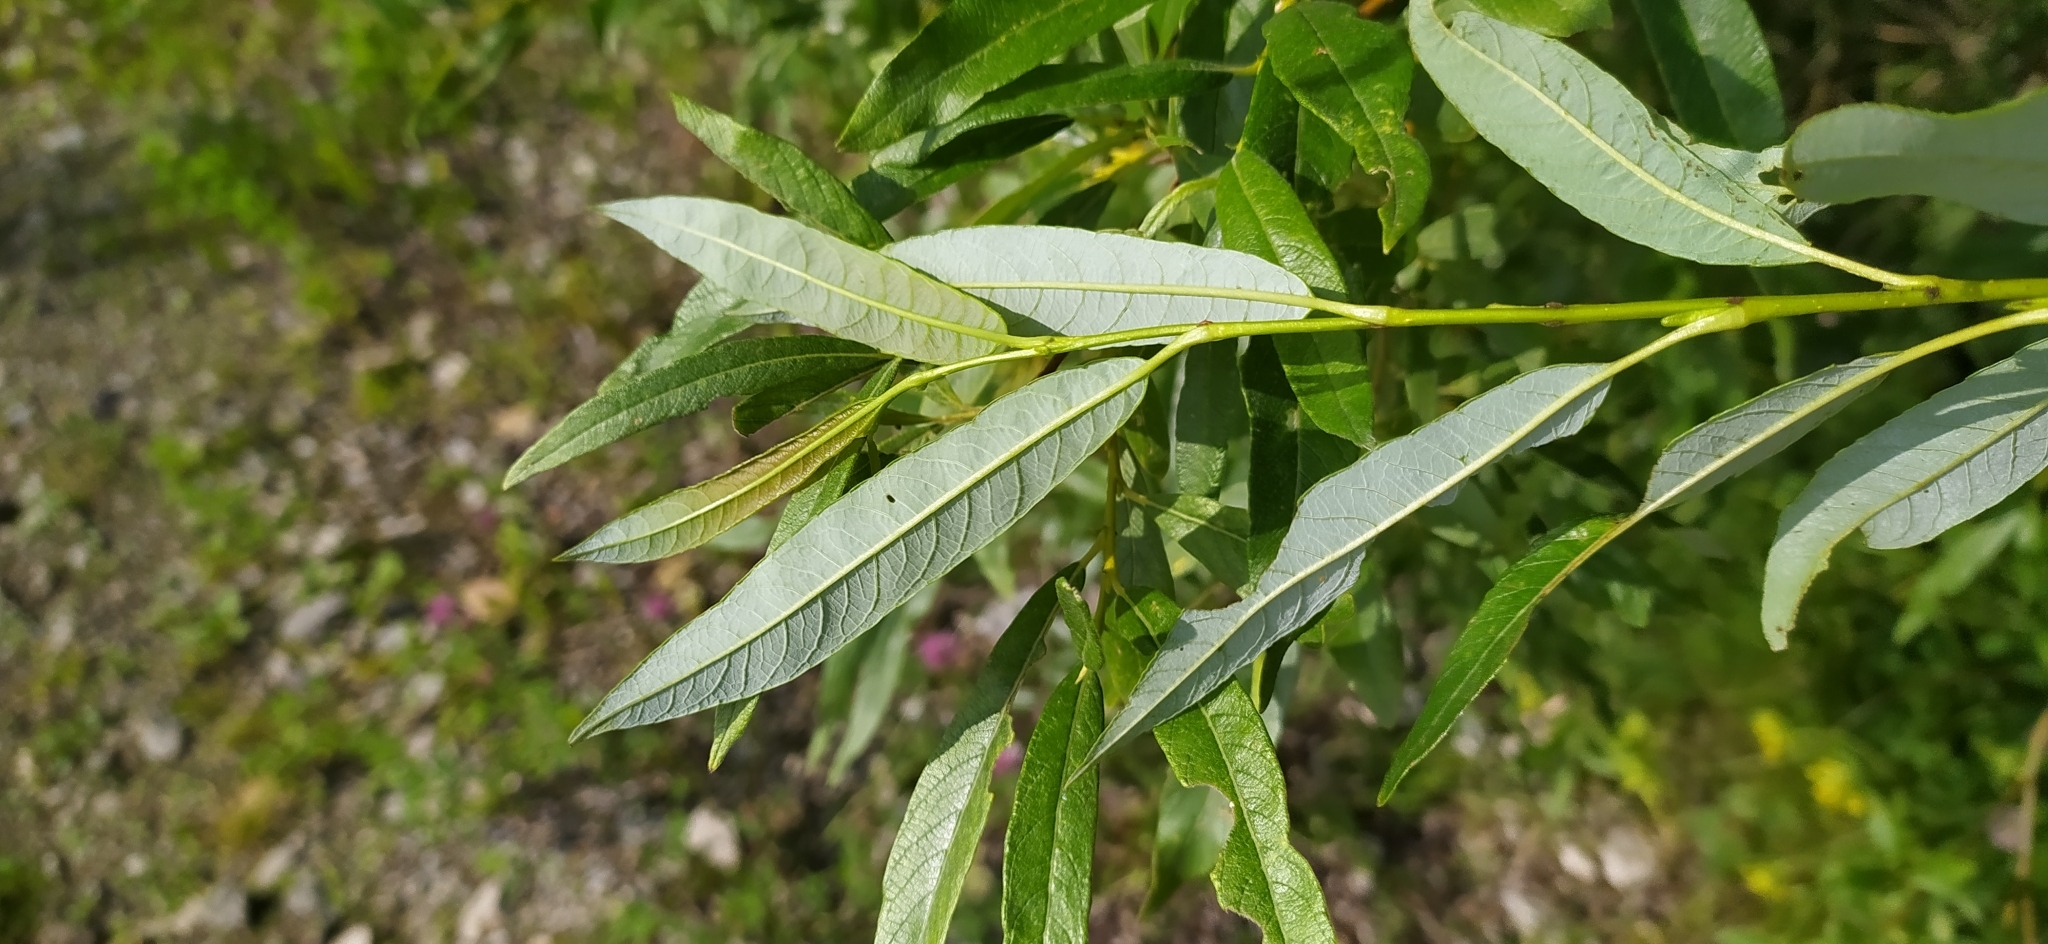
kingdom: Plantae
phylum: Tracheophyta
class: Magnoliopsida
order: Malpighiales
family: Salicaceae
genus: Salix
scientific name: Salix gmelinii
